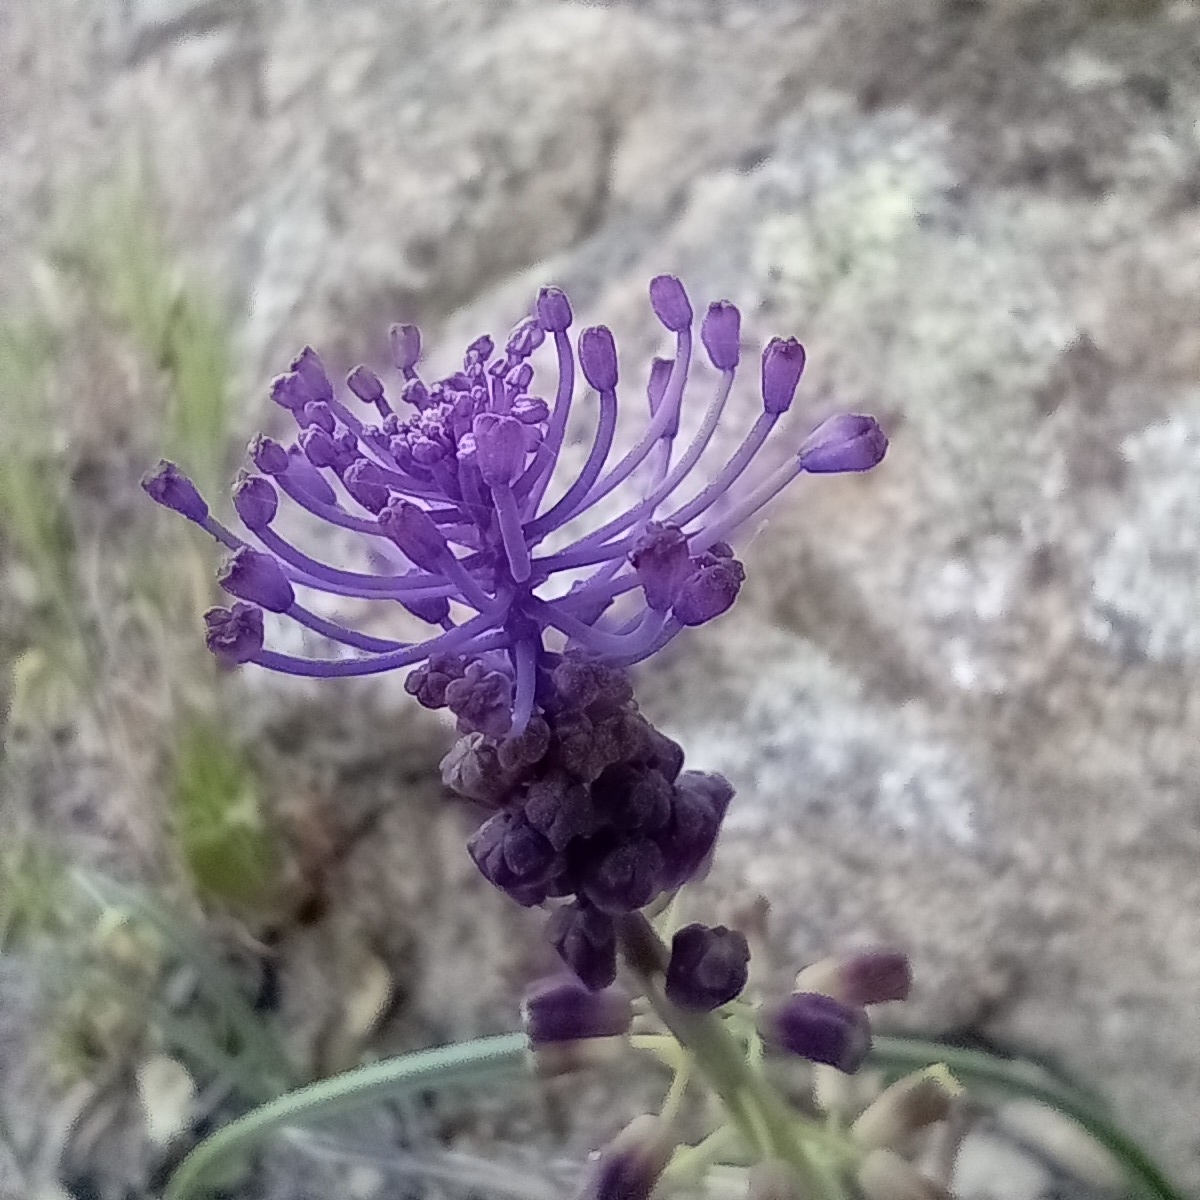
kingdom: Plantae
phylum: Tracheophyta
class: Liliopsida
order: Asparagales
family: Asparagaceae
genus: Muscari
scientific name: Muscari comosum
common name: Tassel hyacinth
